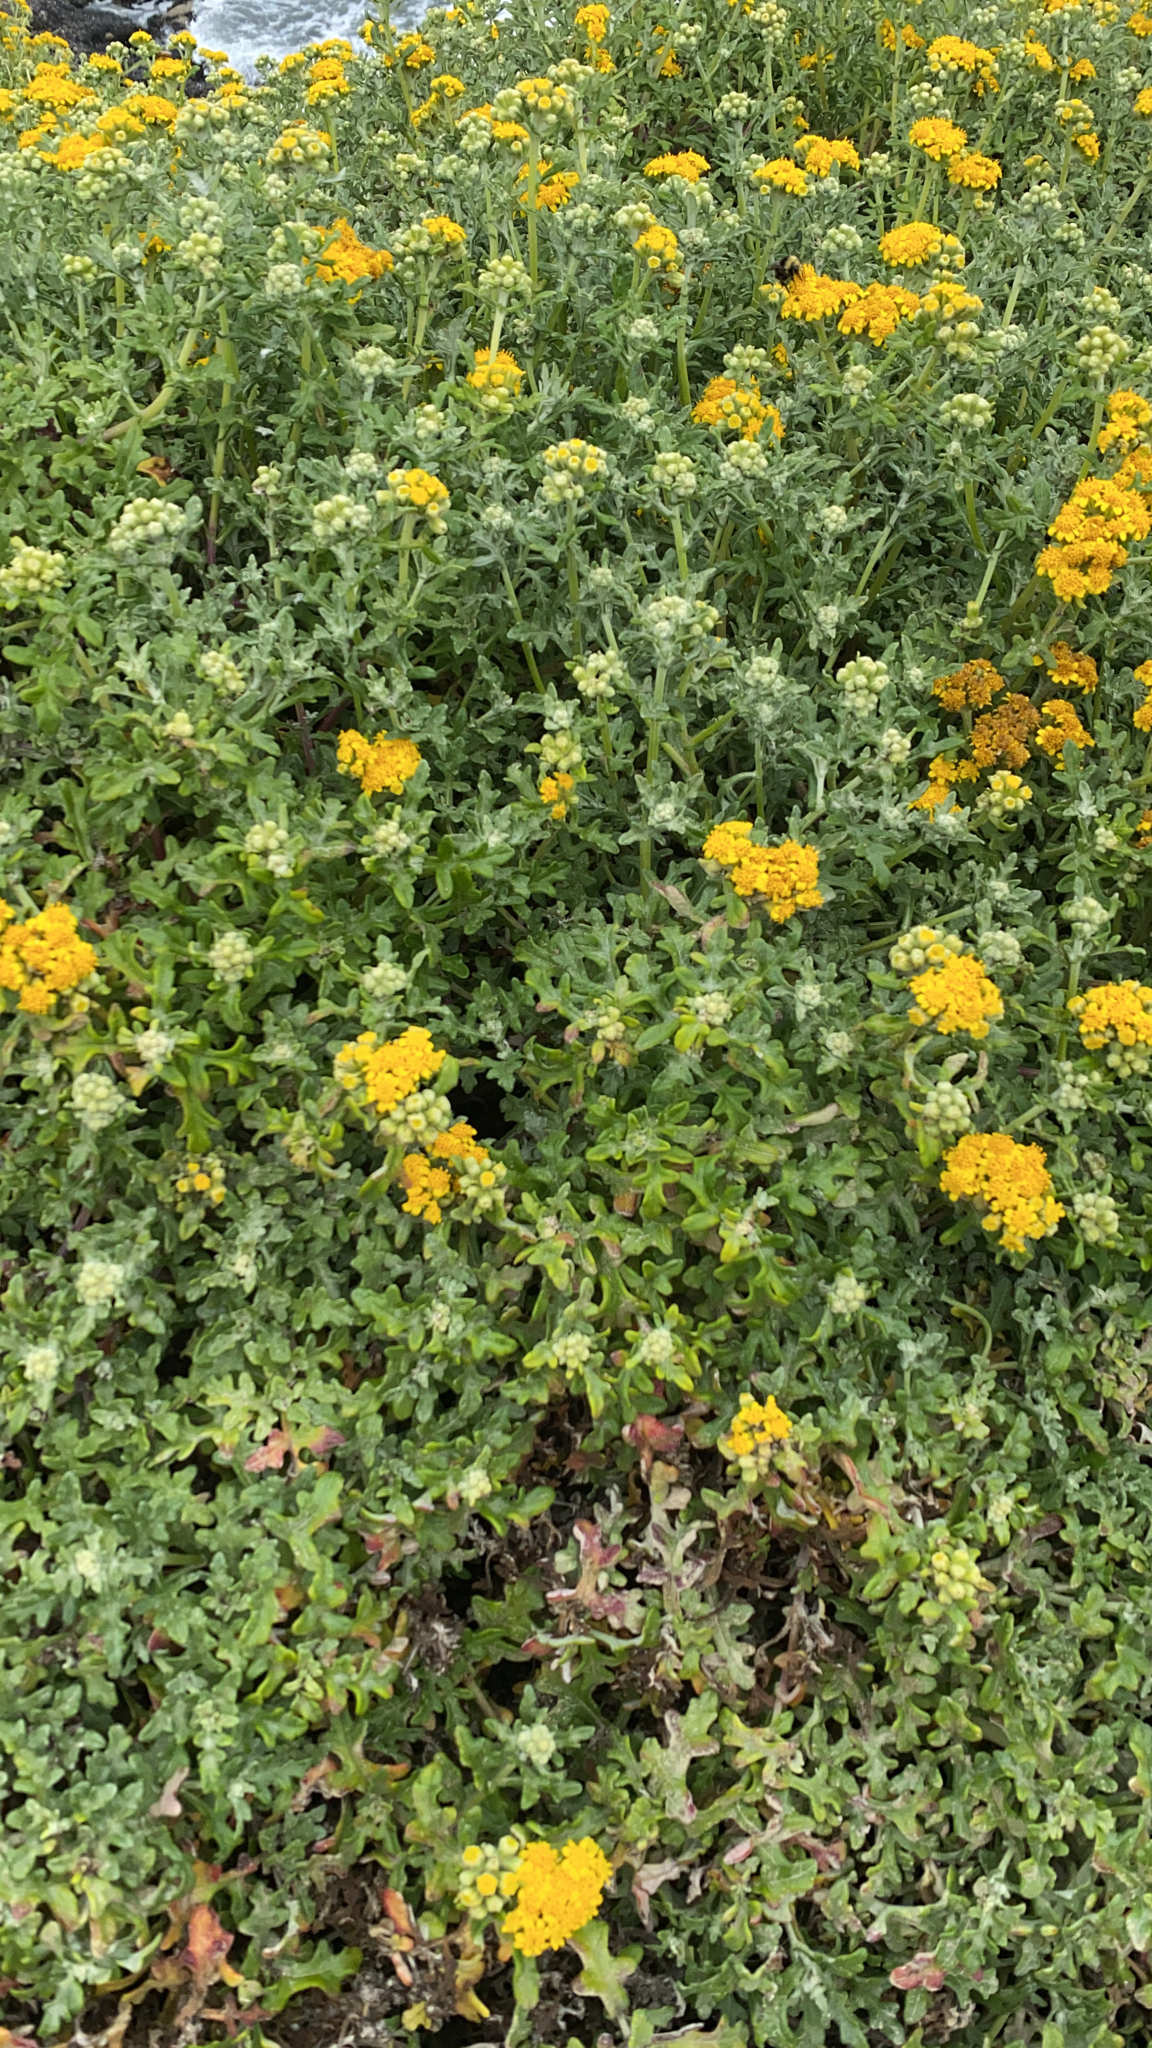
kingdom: Plantae
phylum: Tracheophyta
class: Magnoliopsida
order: Asterales
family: Asteraceae
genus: Eriophyllum
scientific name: Eriophyllum staechadifolium
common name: Lizardtail
